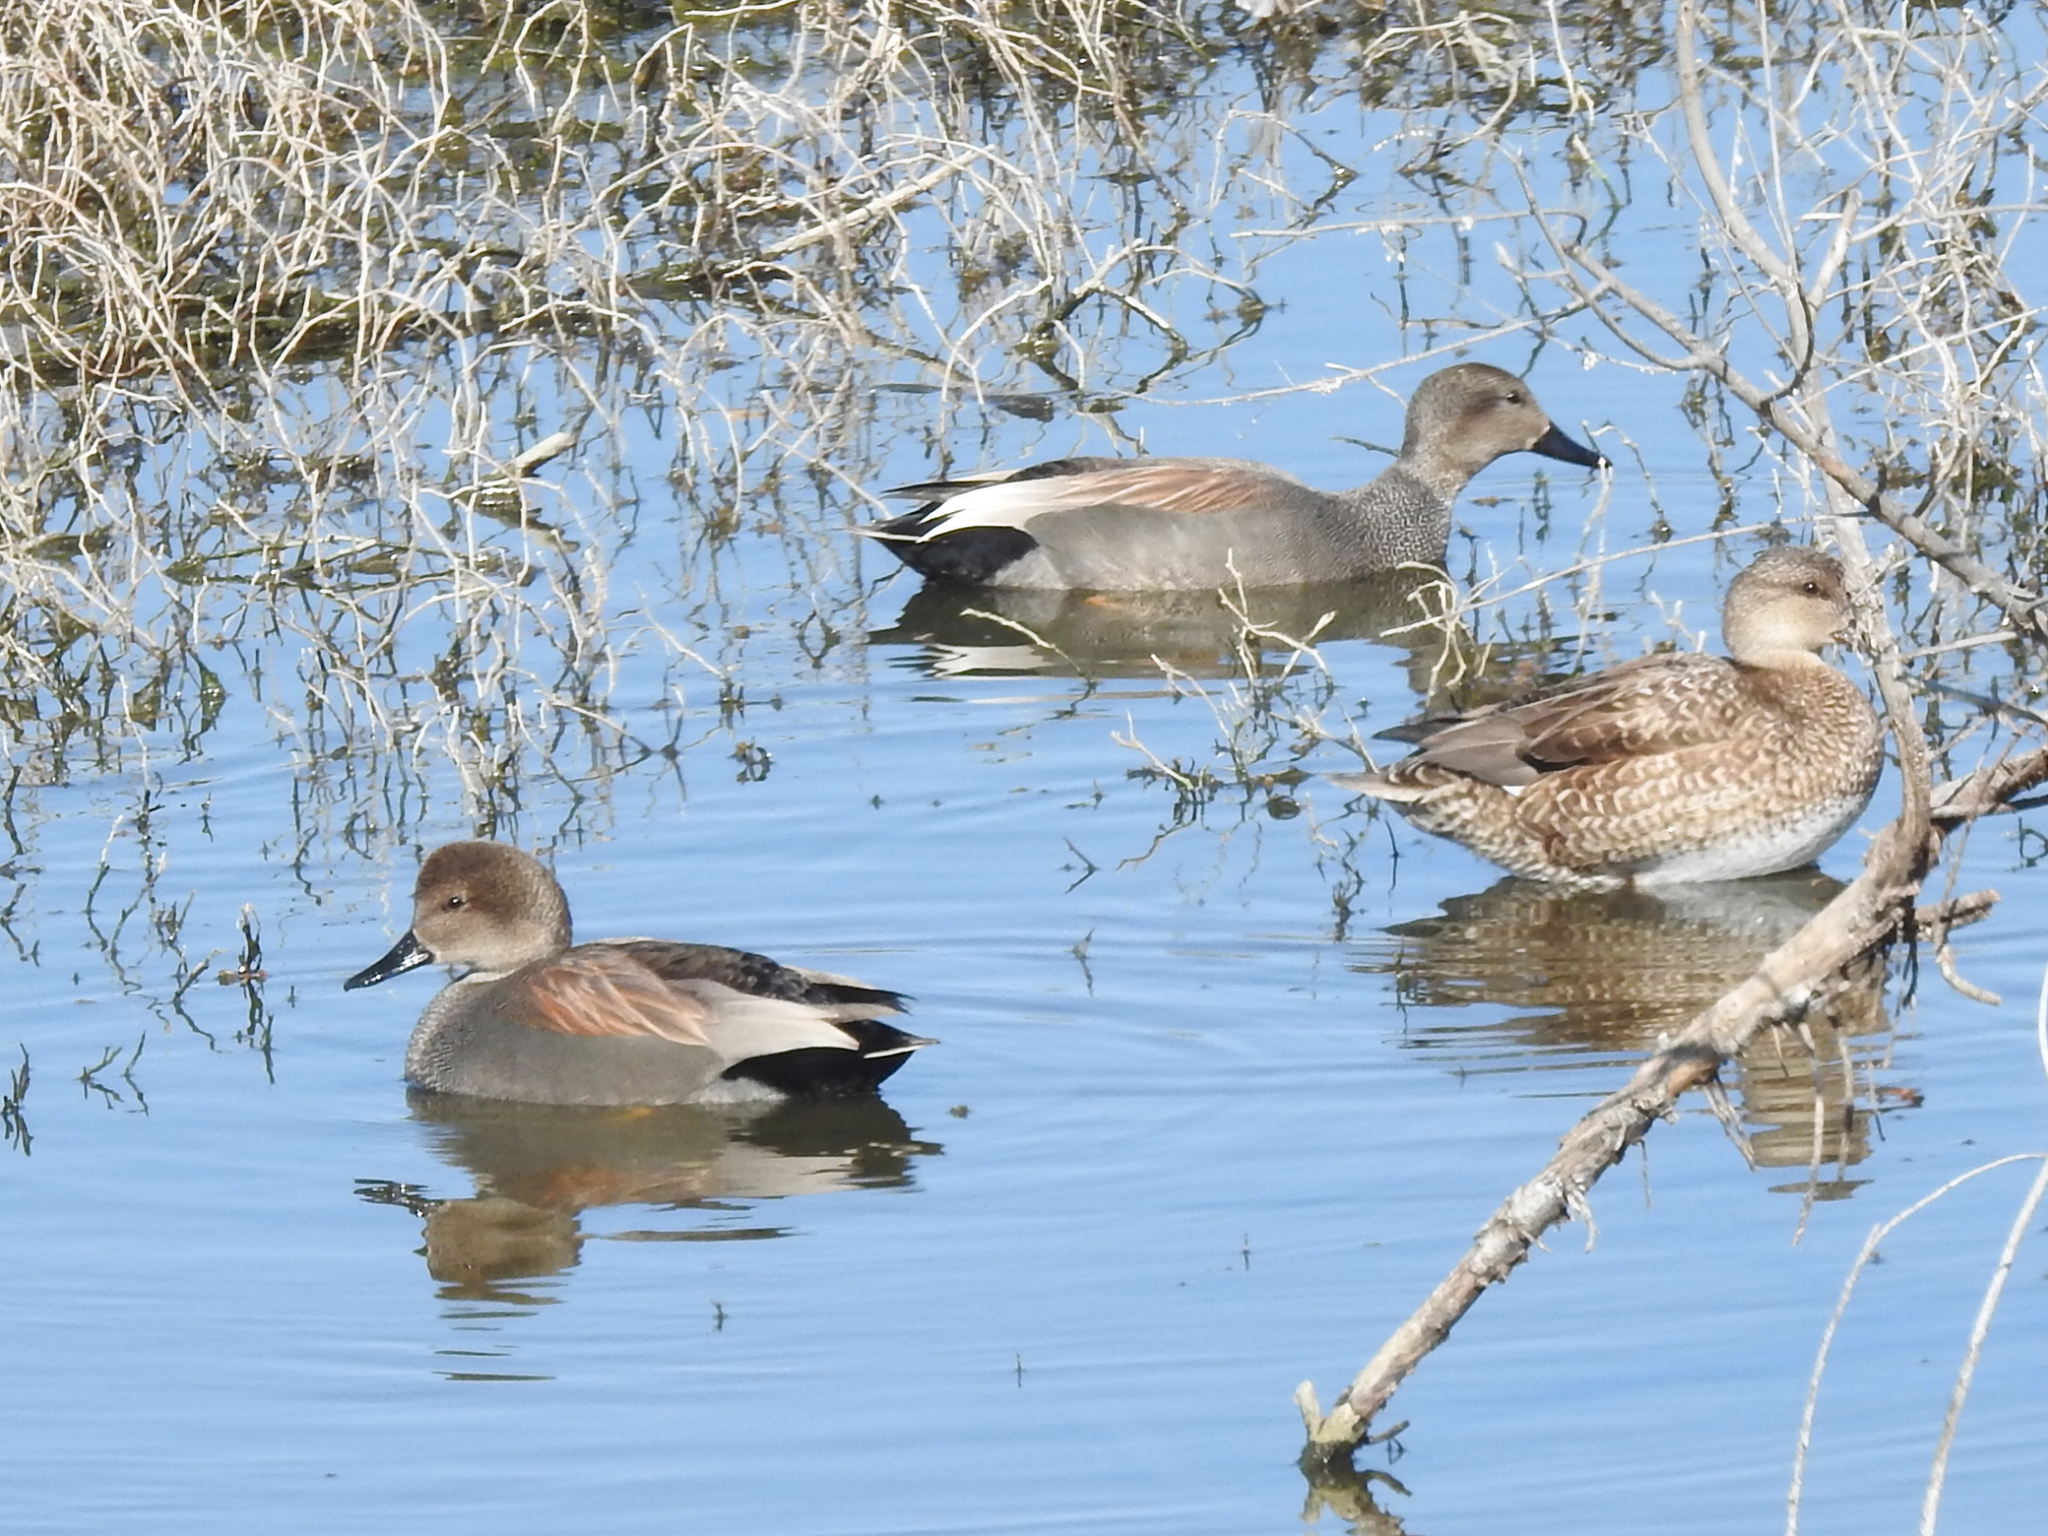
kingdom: Animalia
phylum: Chordata
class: Aves
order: Anseriformes
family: Anatidae
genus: Mareca
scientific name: Mareca strepera
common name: Gadwall
